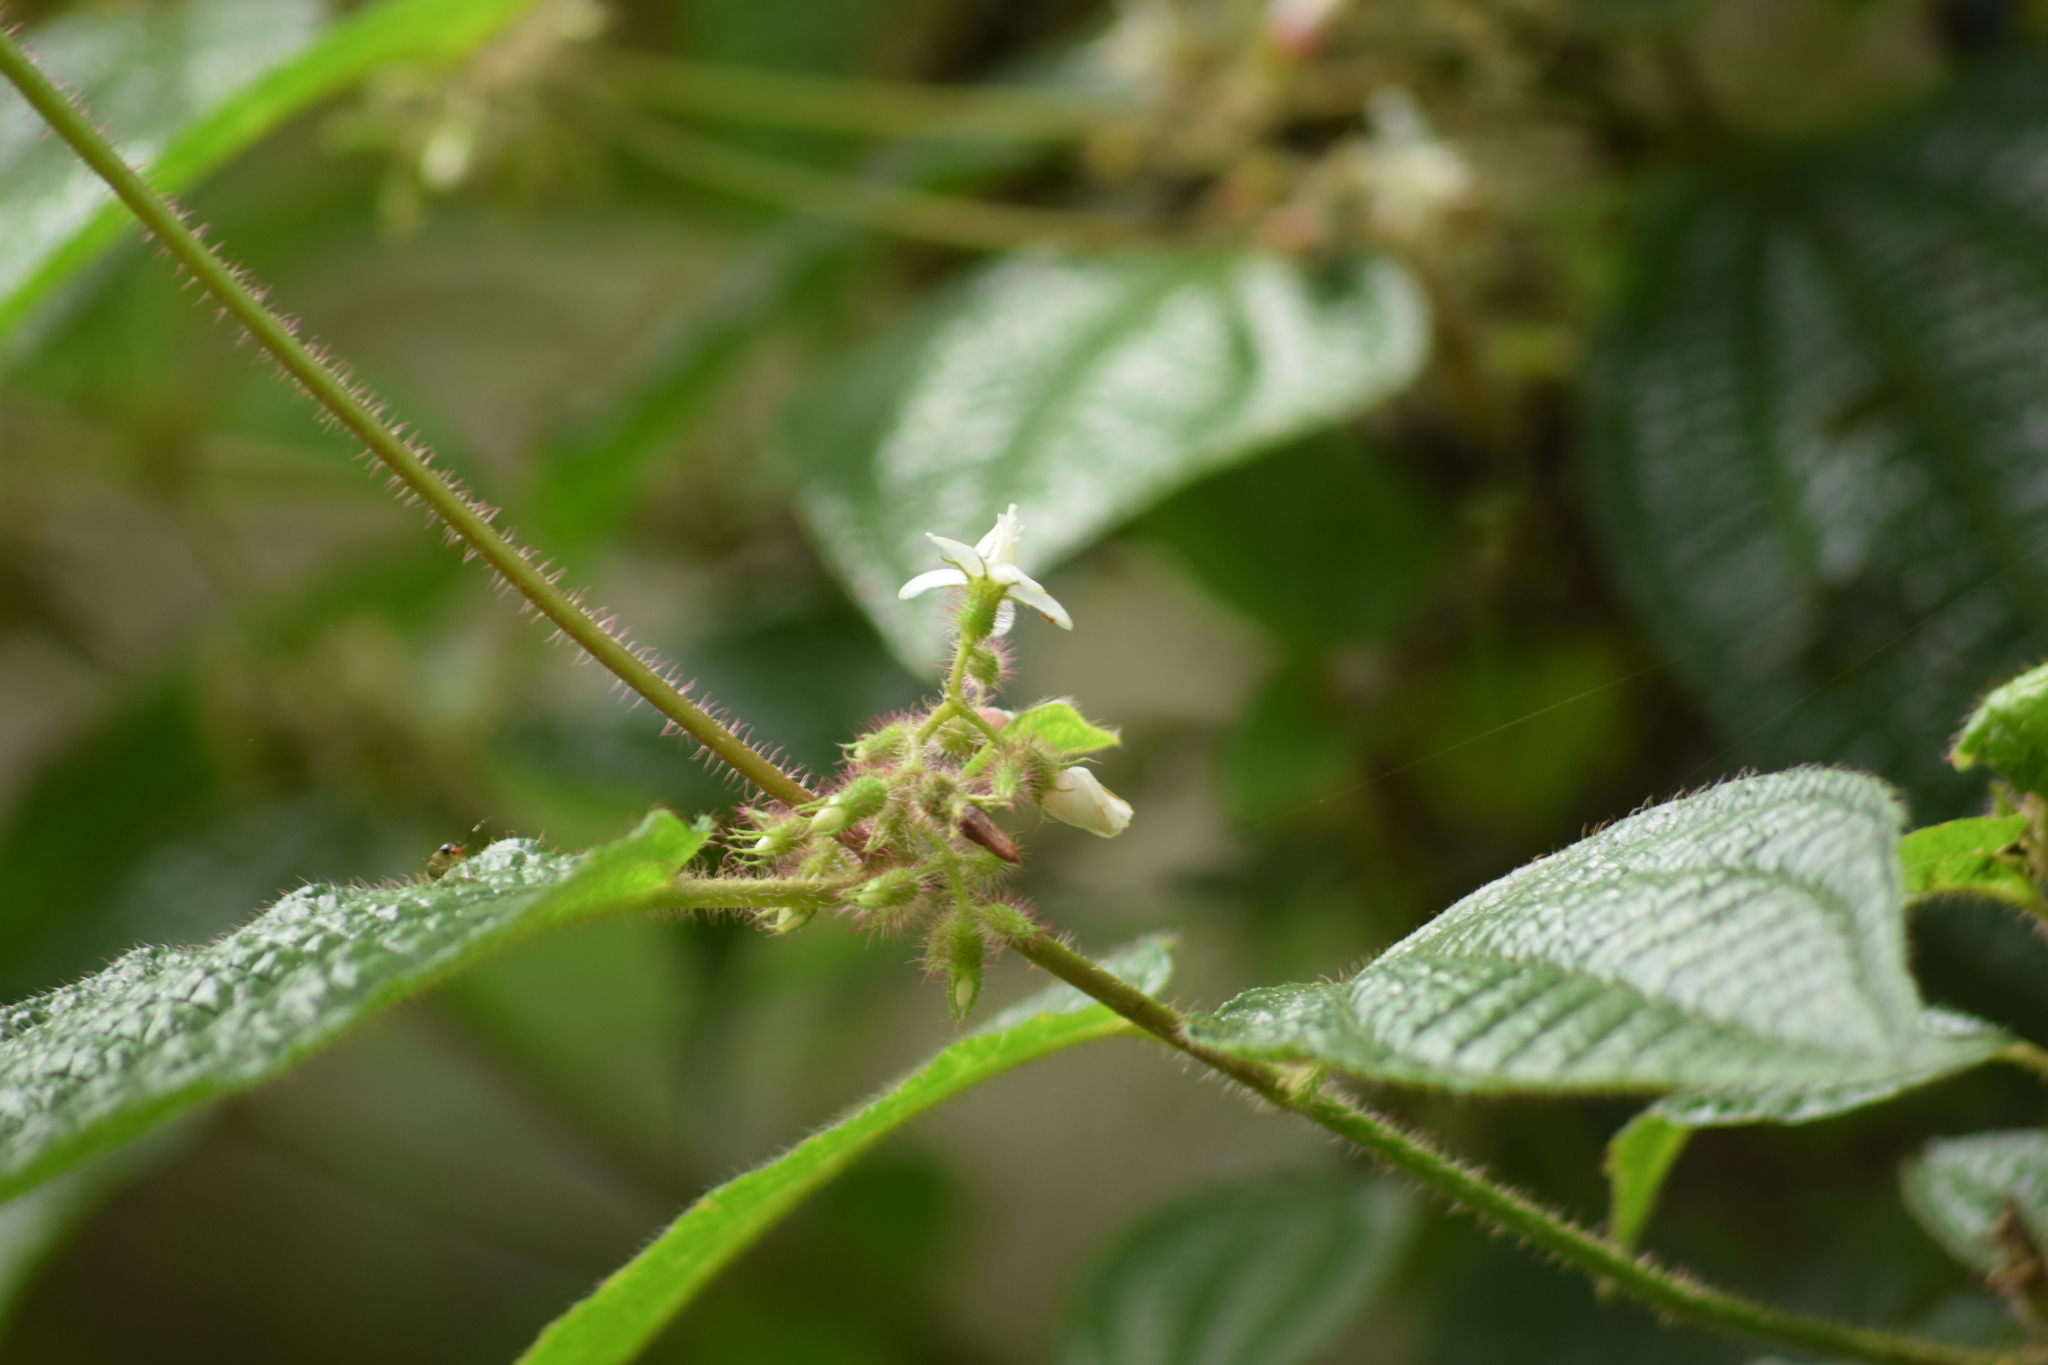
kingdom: Plantae
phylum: Tracheophyta
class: Magnoliopsida
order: Myrtales
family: Melastomataceae
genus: Miconia
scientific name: Miconia crenata
